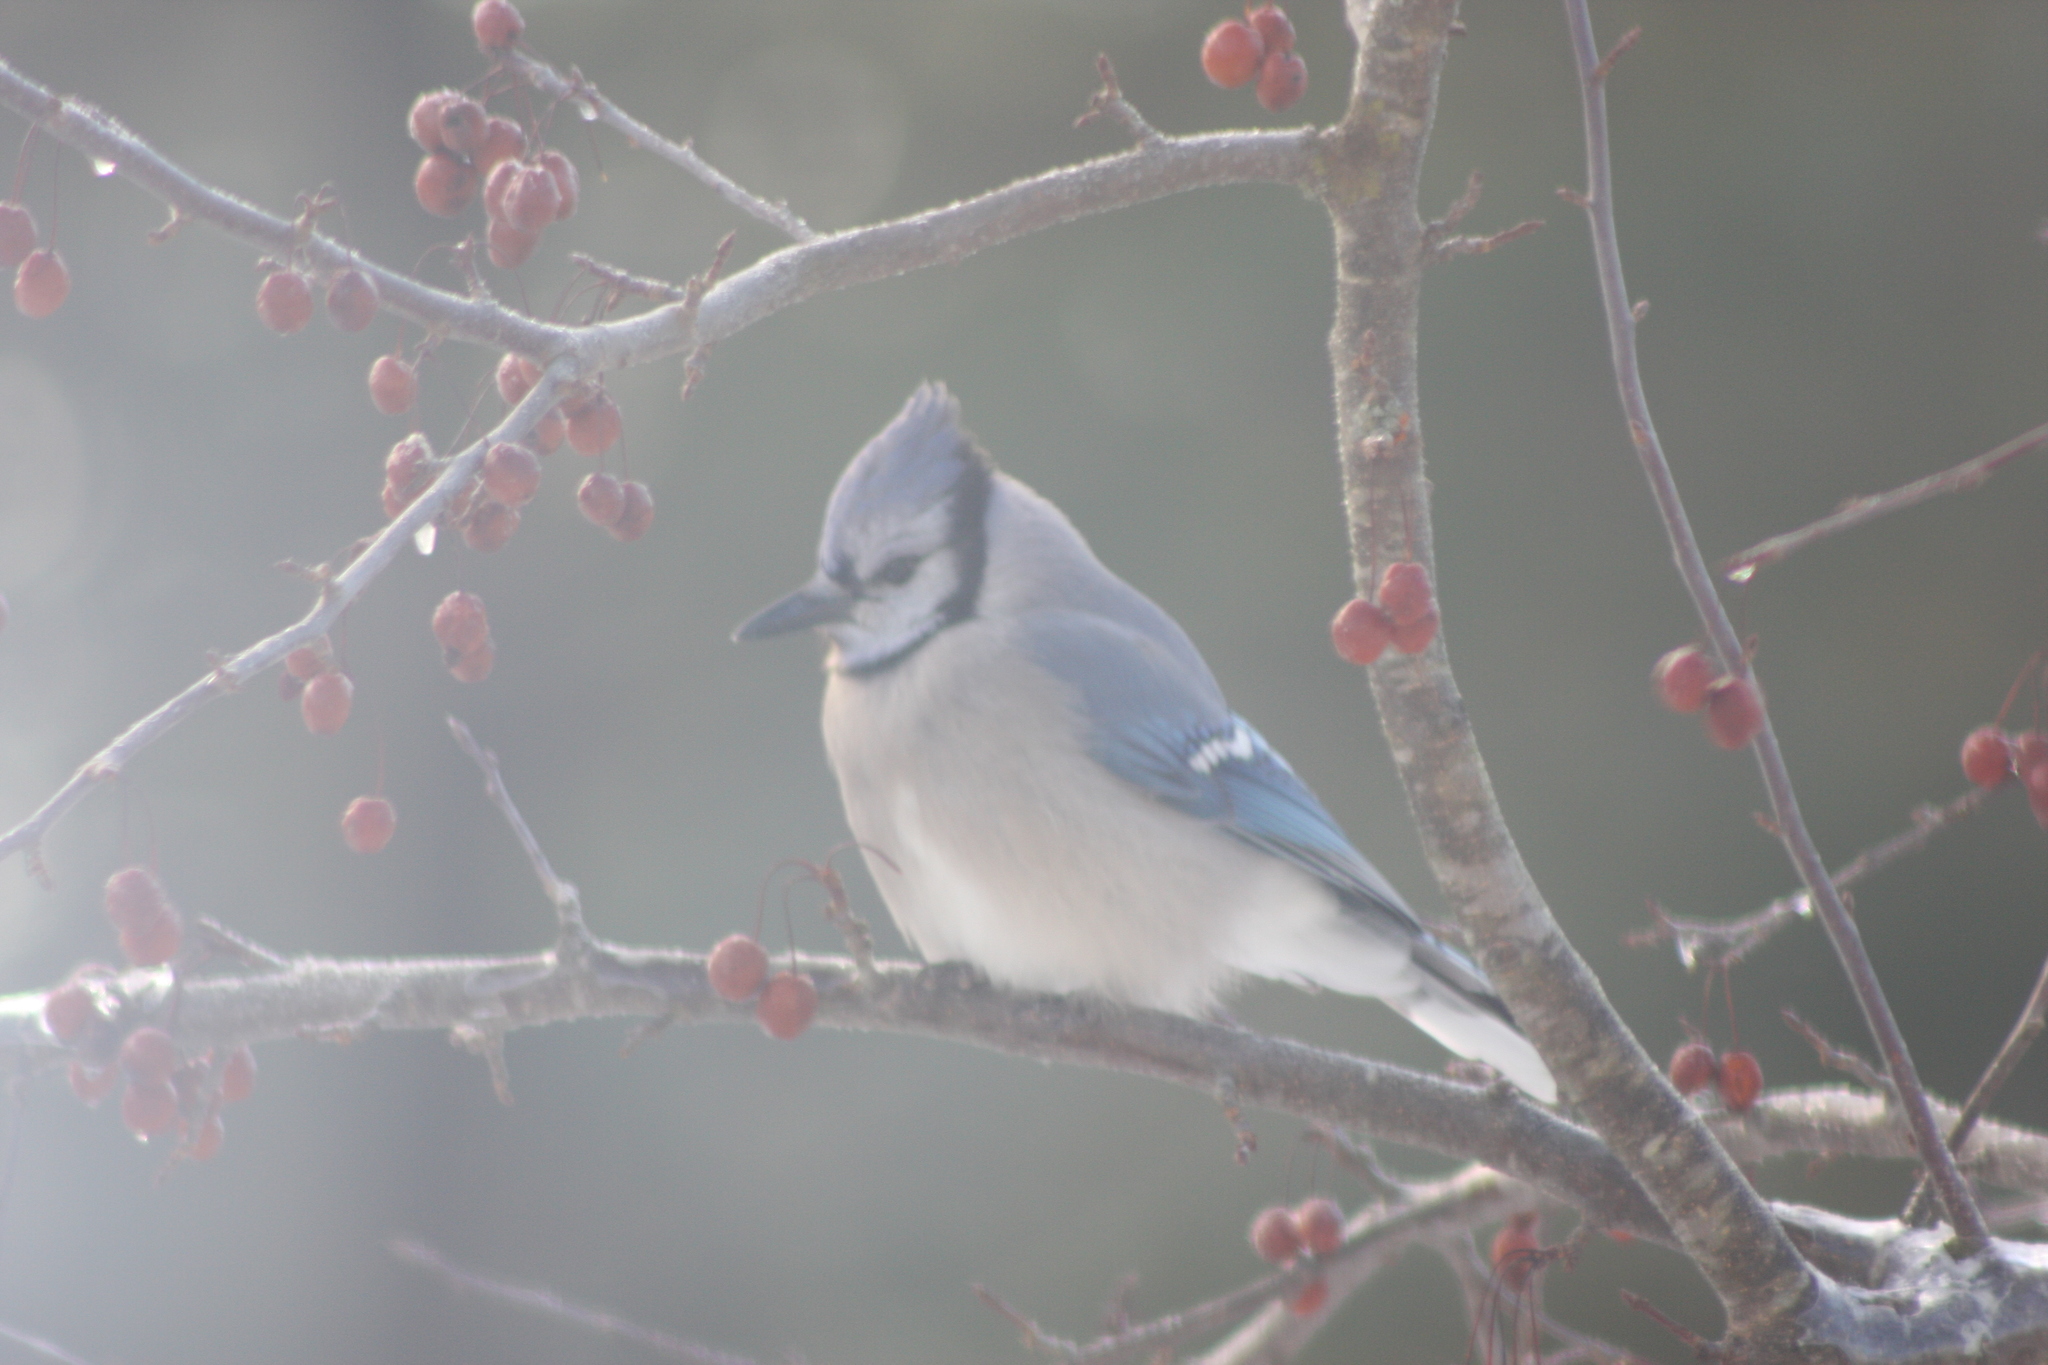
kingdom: Animalia
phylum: Chordata
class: Aves
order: Passeriformes
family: Corvidae
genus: Cyanocitta
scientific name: Cyanocitta cristata
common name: Blue jay
